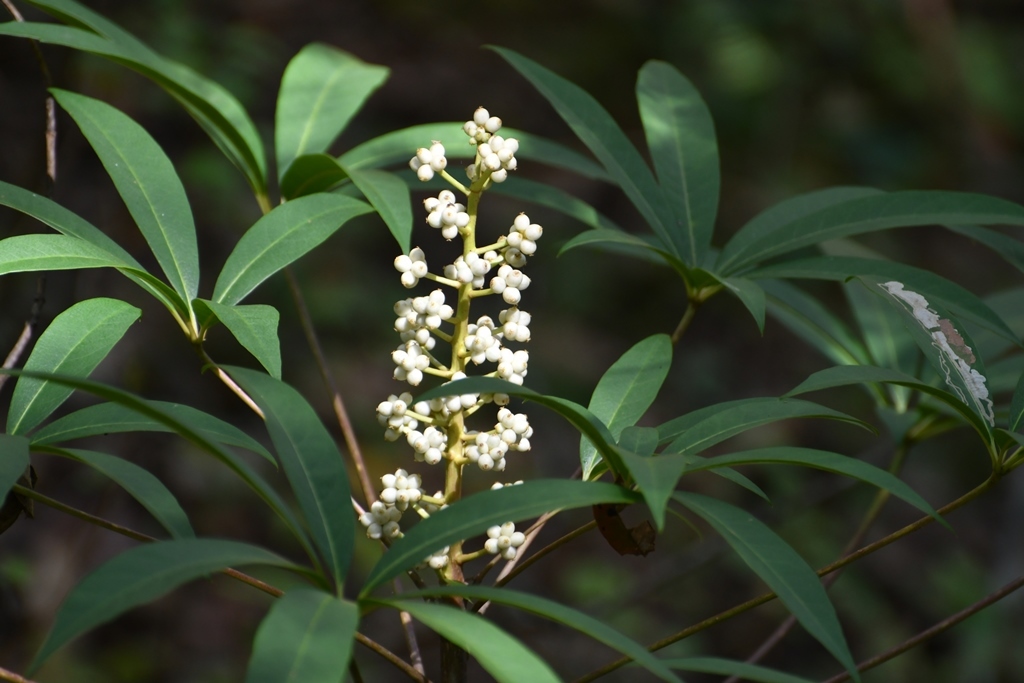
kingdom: Plantae
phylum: Tracheophyta
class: Magnoliopsida
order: Apiales
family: Araliaceae
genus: Oreopanax
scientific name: Oreopanax xalapensis
